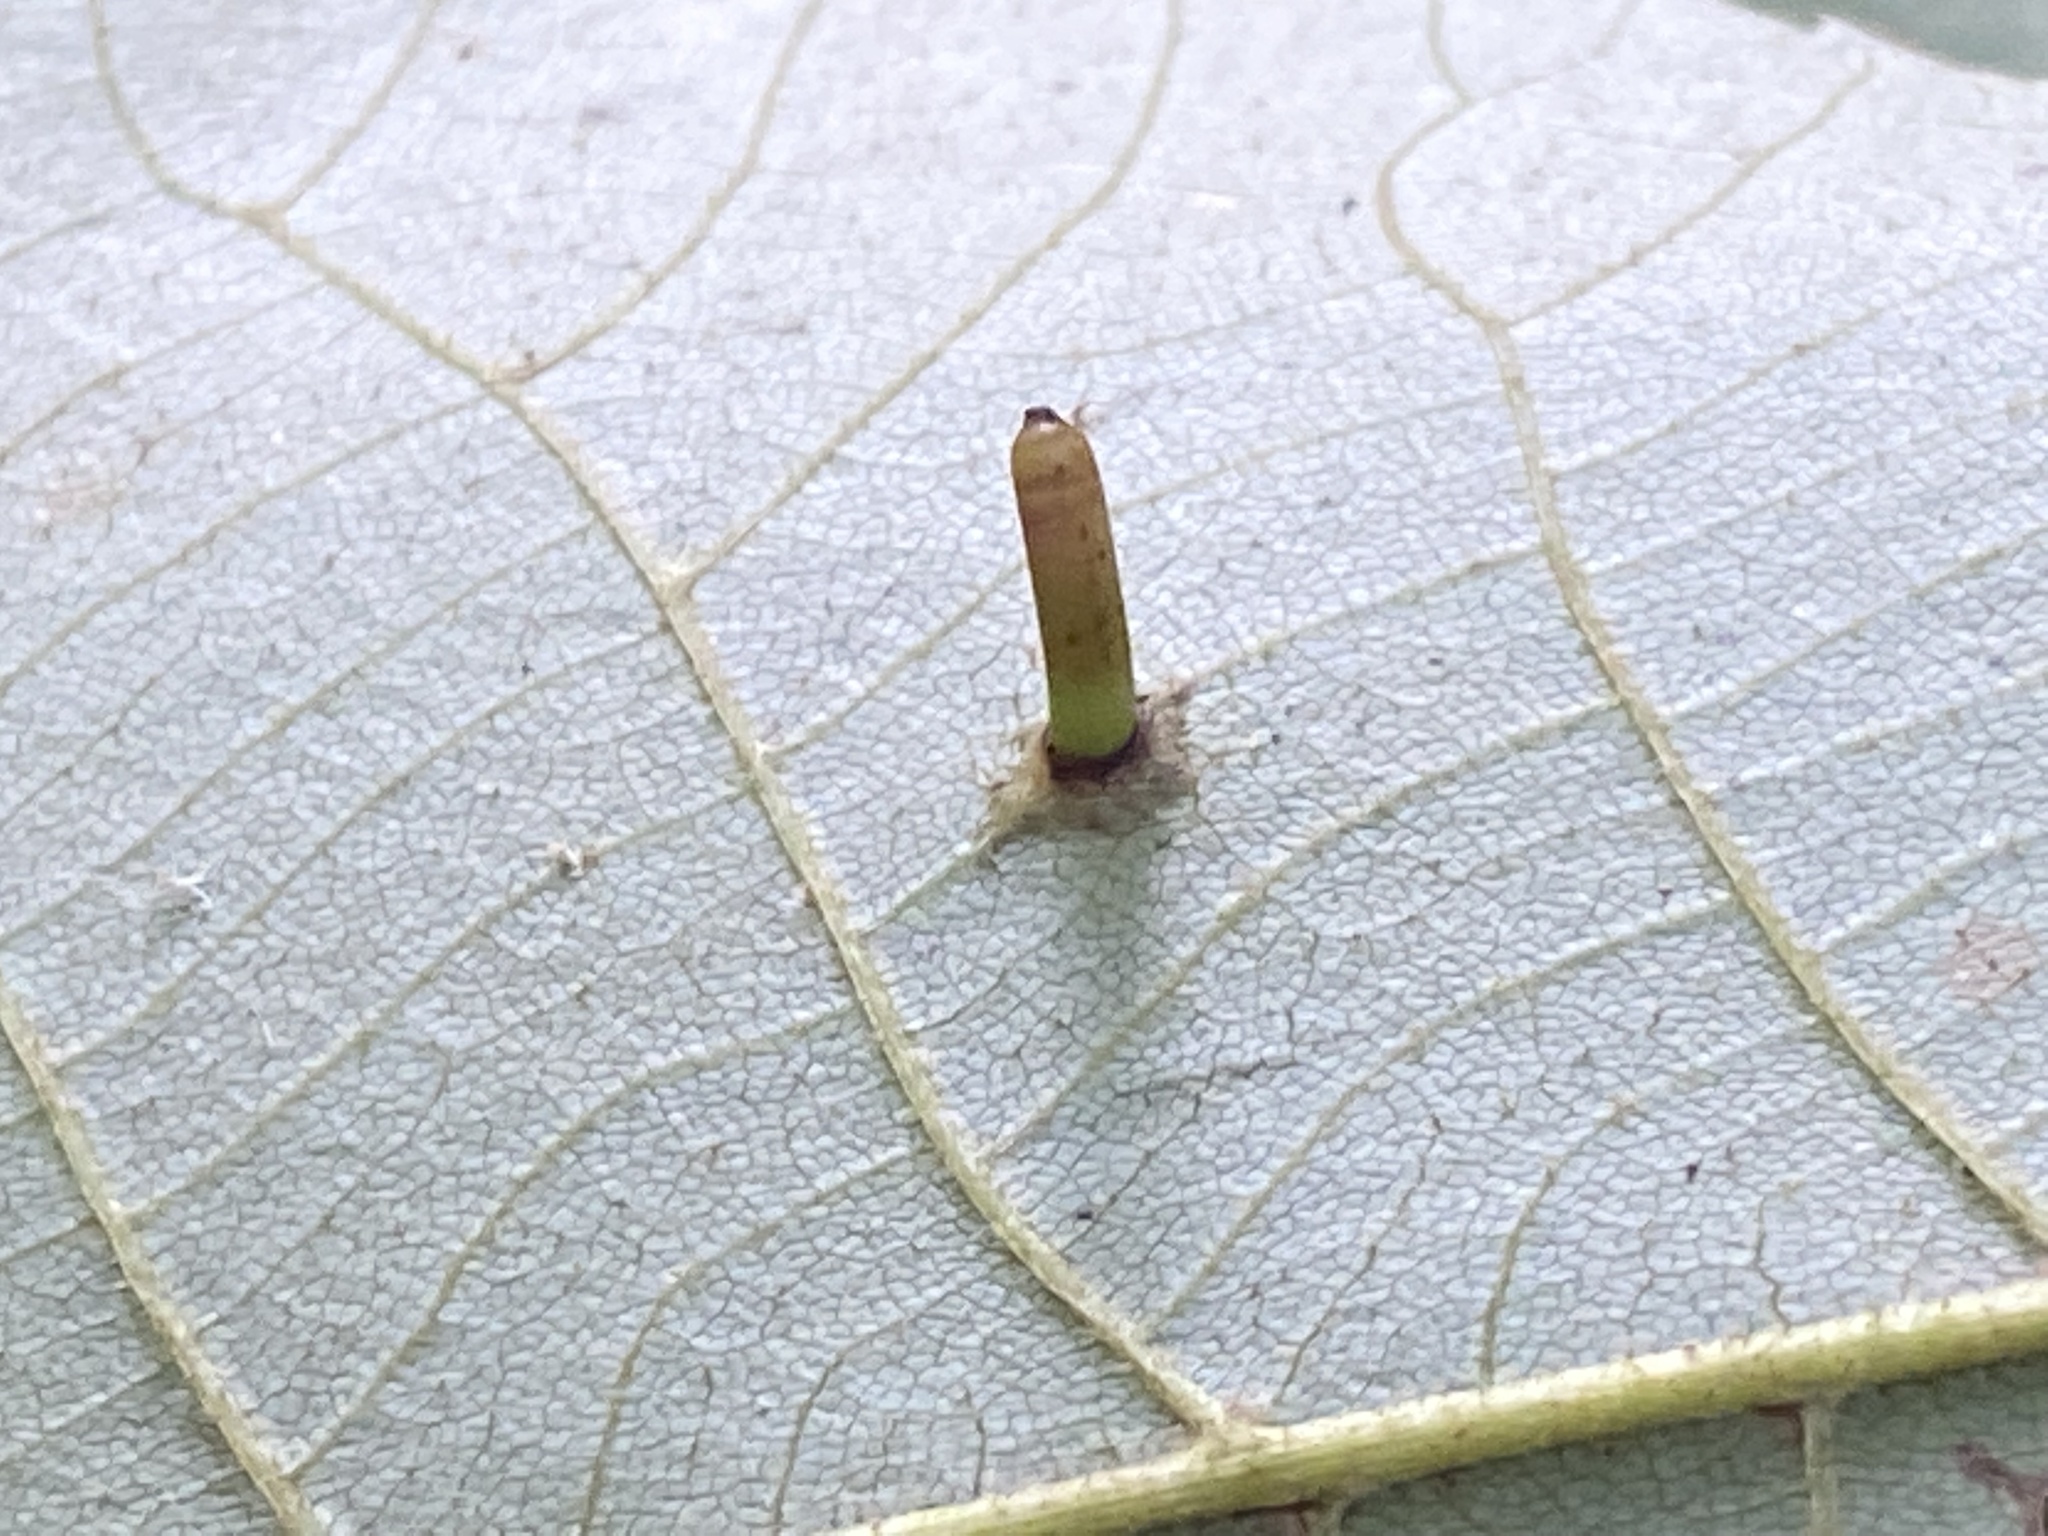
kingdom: Animalia
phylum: Arthropoda
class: Insecta
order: Diptera
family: Cecidomyiidae
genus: Caryomyia
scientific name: Caryomyia tubicola
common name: Hickory bullet gall midge
